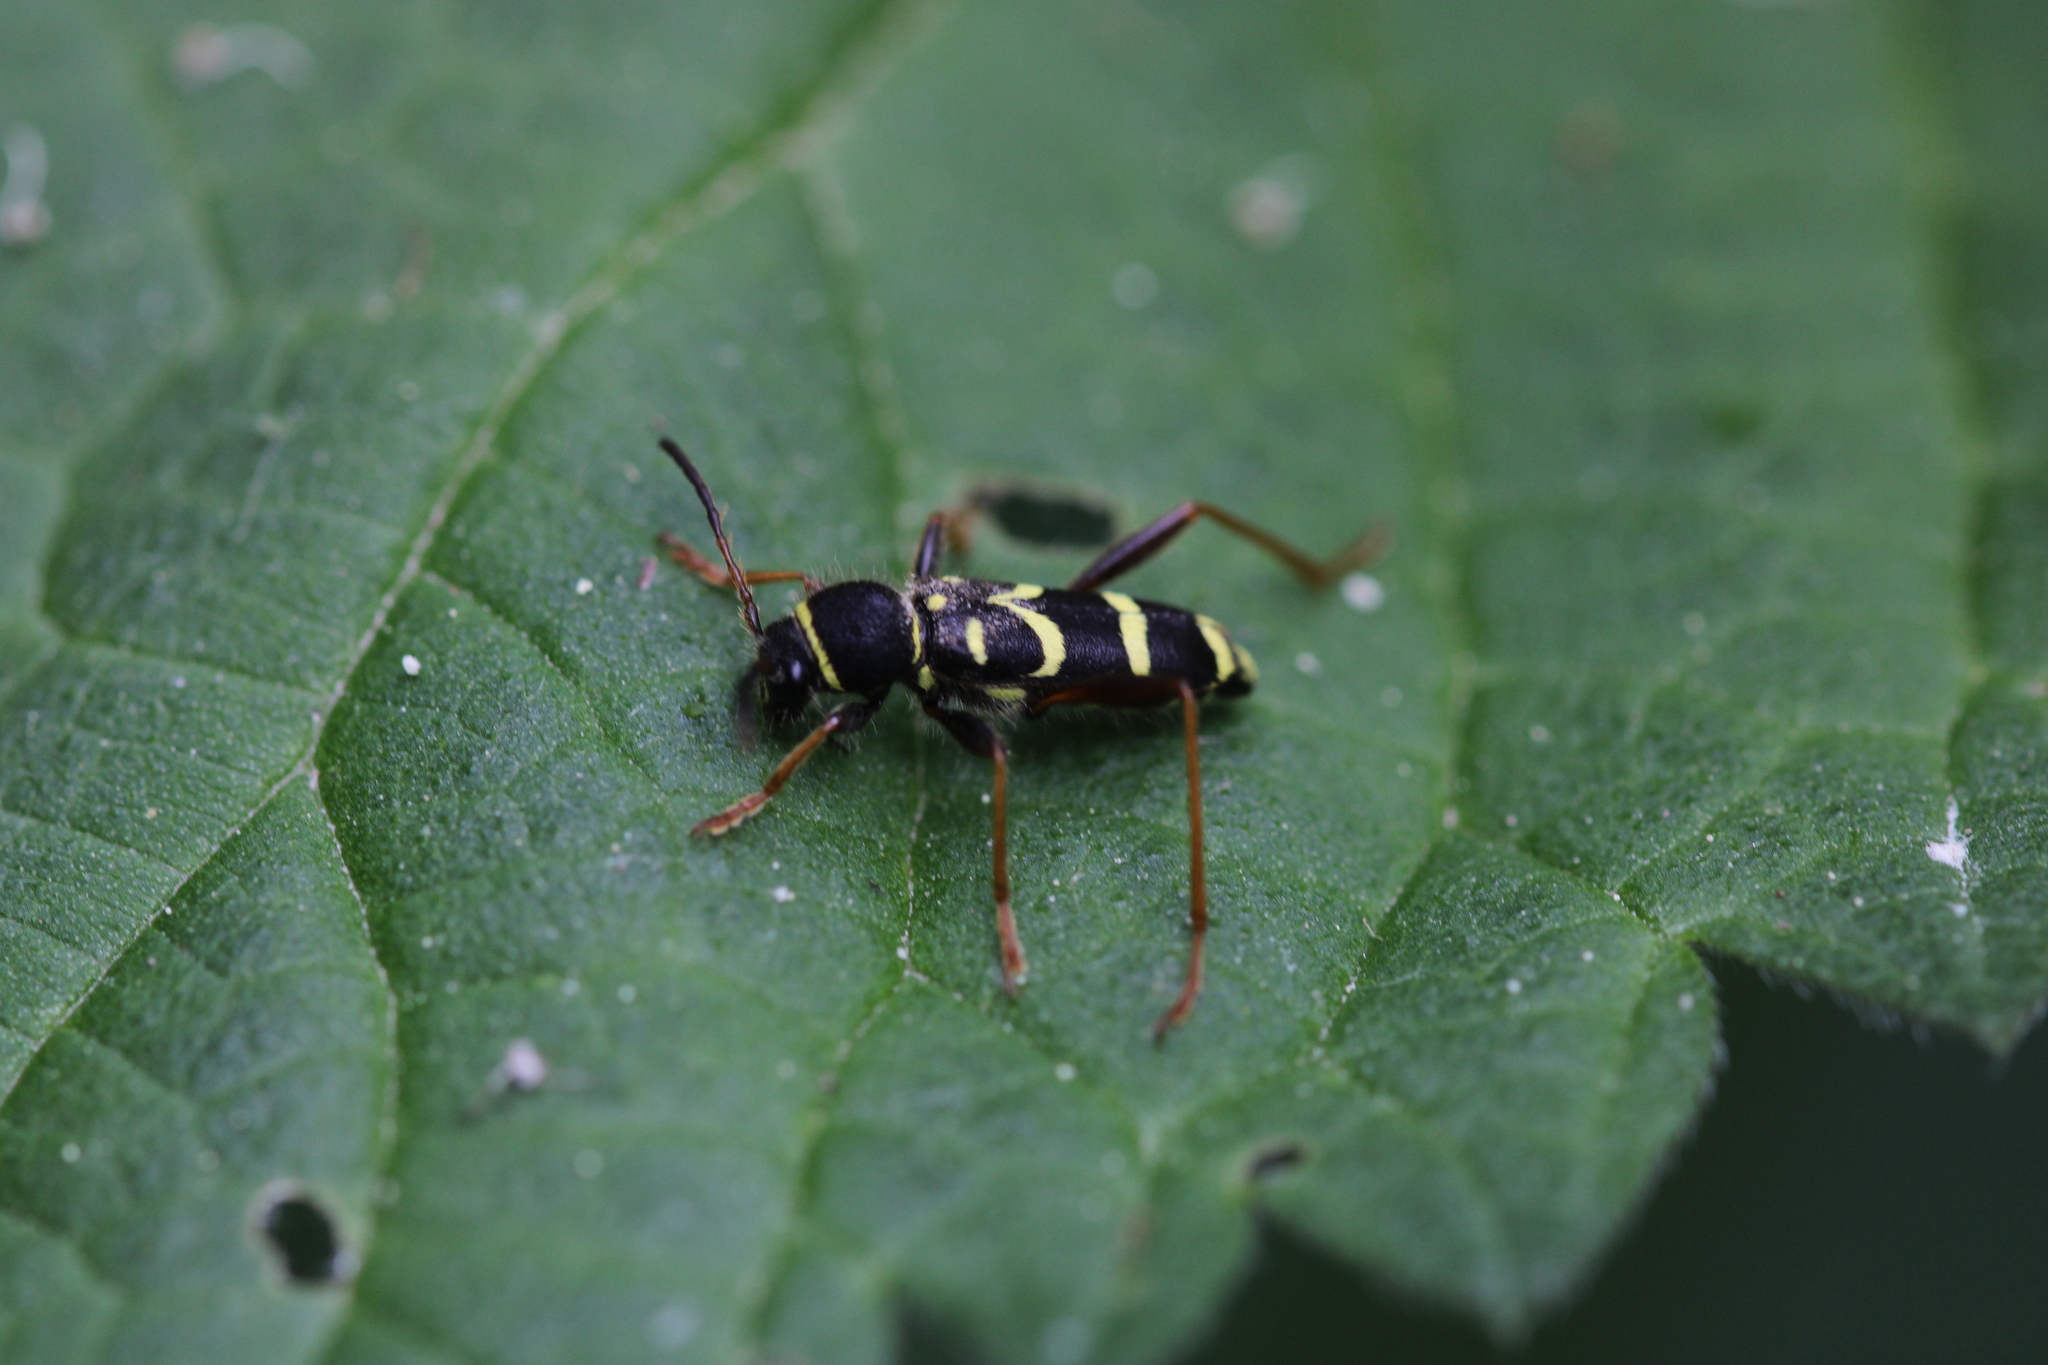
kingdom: Animalia
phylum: Arthropoda
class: Insecta
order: Coleoptera
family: Cerambycidae
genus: Clytus
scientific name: Clytus arietis
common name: Wasp beetle
